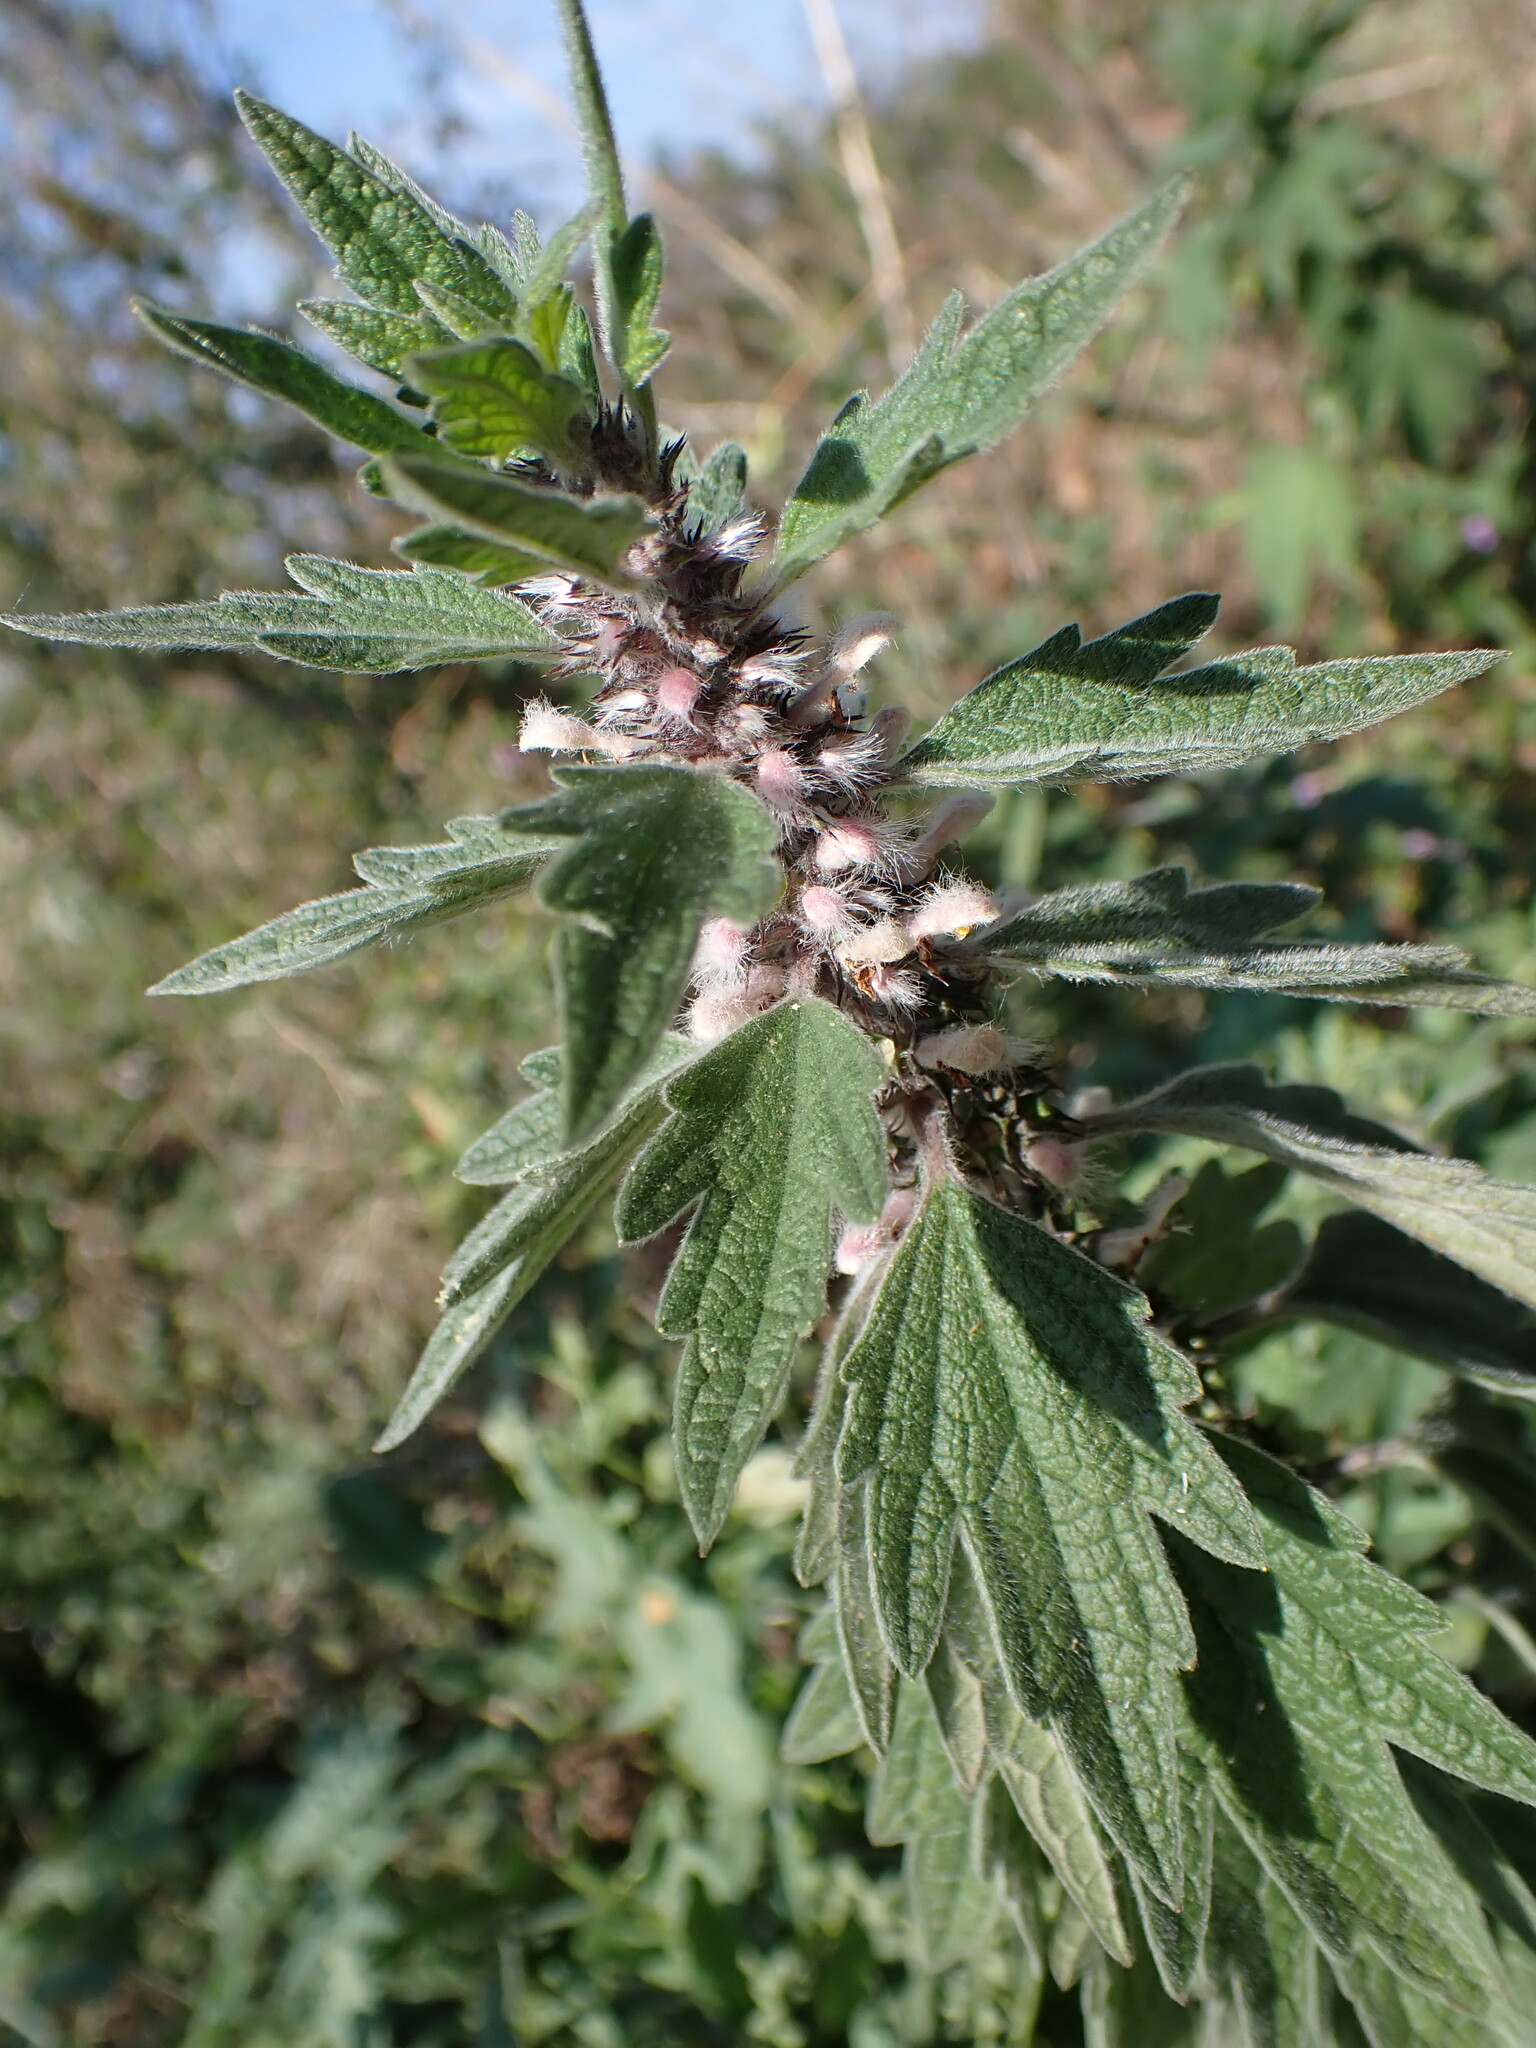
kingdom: Plantae
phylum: Tracheophyta
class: Magnoliopsida
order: Lamiales
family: Lamiaceae
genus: Leonurus
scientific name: Leonurus quinquelobatus
